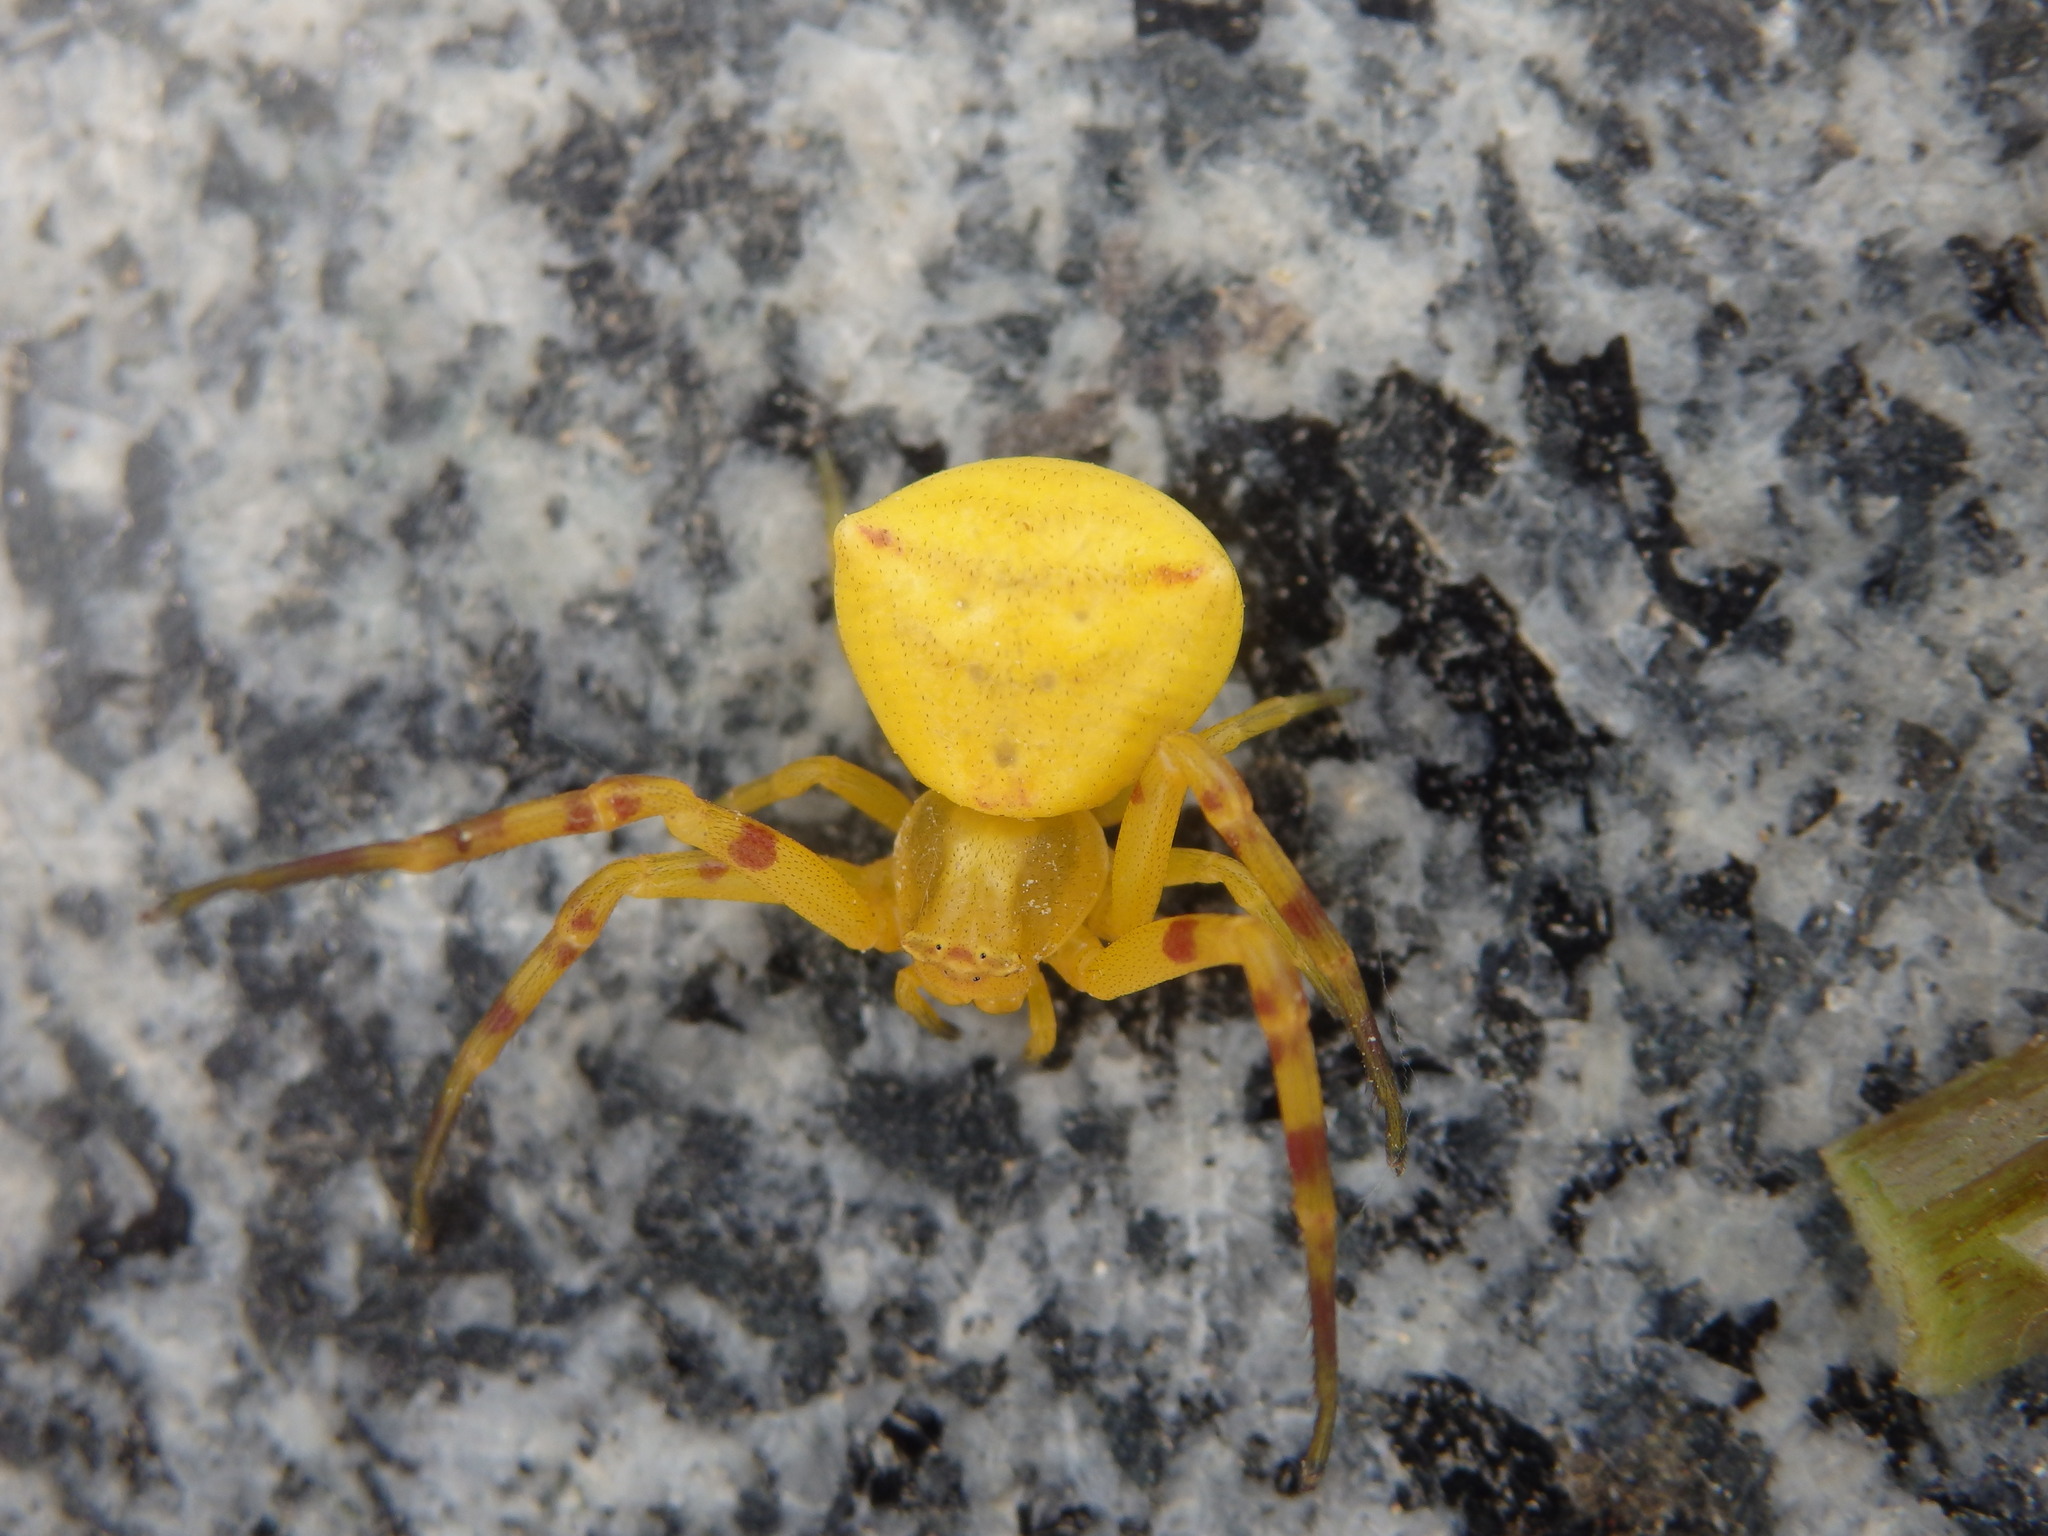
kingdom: Animalia
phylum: Arthropoda
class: Arachnida
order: Araneae
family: Thomisidae
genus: Thomisus
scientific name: Thomisus onustus
